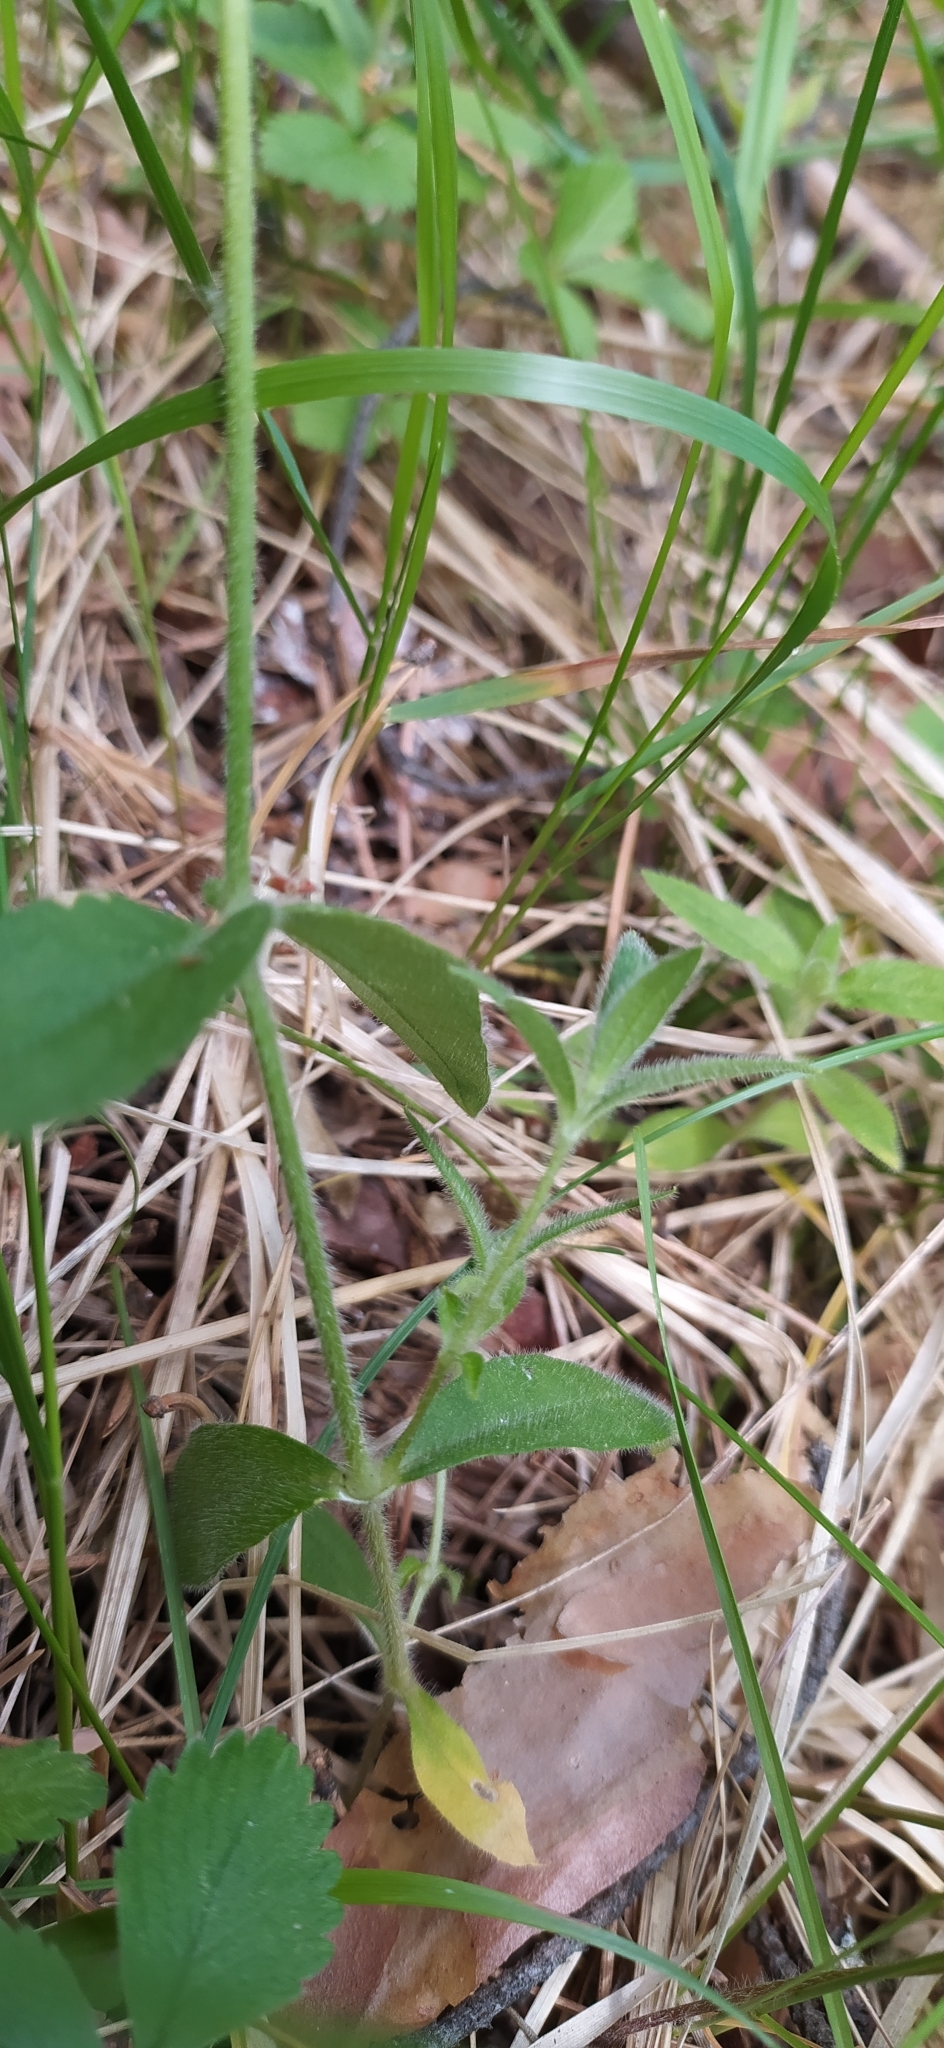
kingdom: Plantae
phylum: Tracheophyta
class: Magnoliopsida
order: Caryophyllales
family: Caryophyllaceae
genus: Cerastium
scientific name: Cerastium pauciflorum
